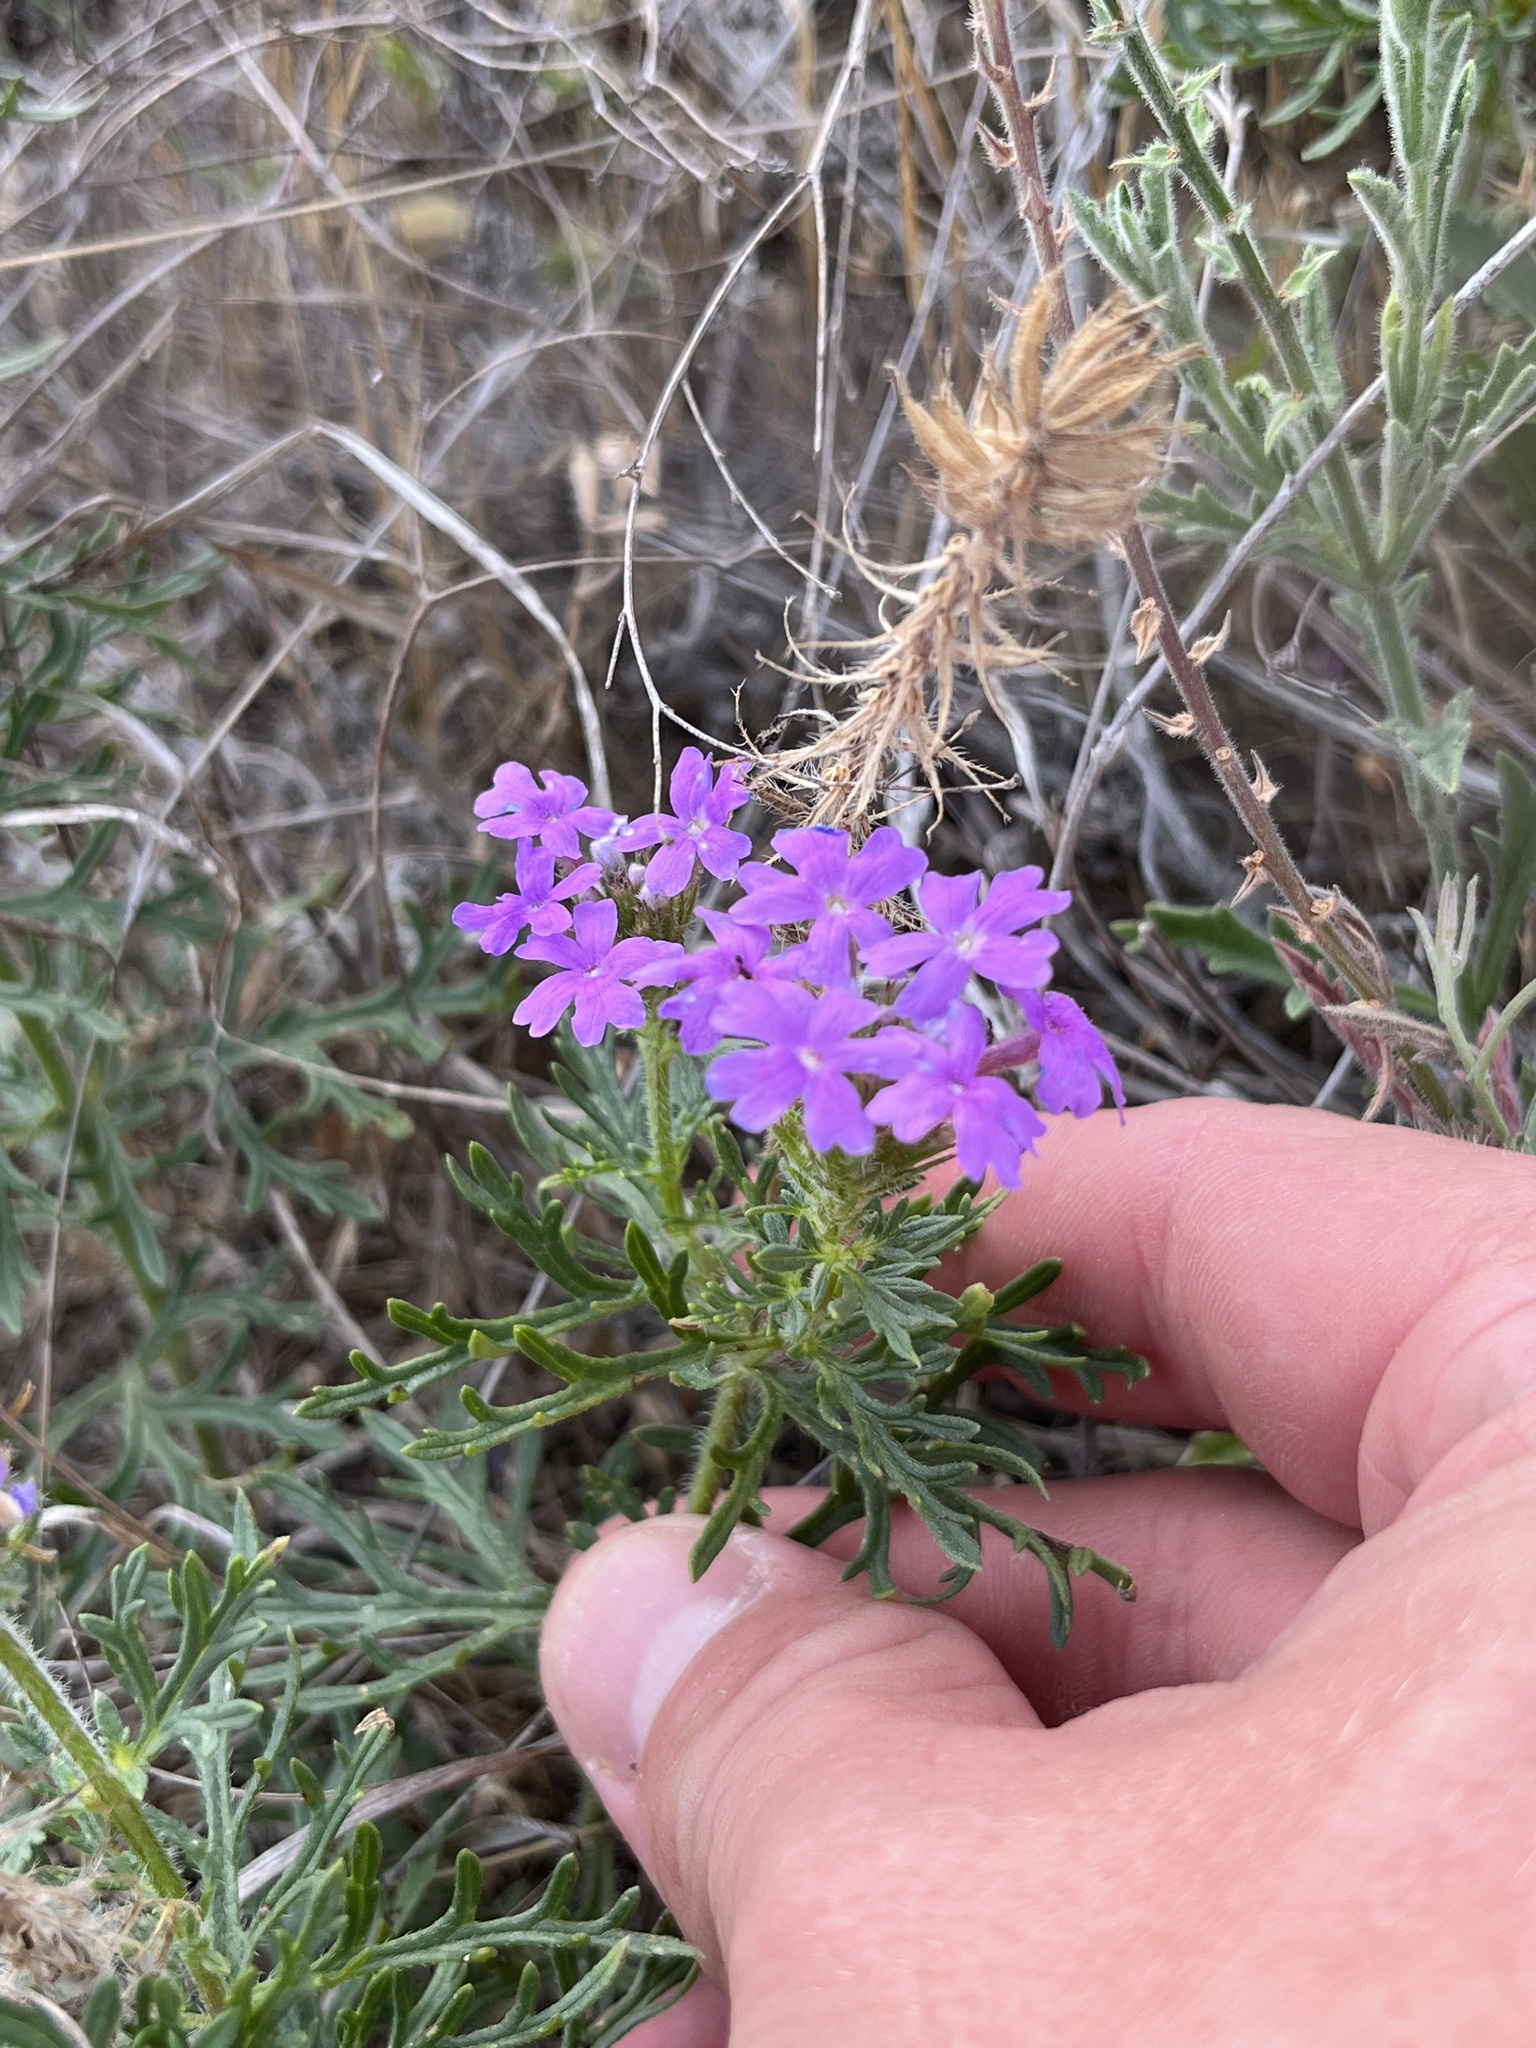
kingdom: Plantae
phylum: Tracheophyta
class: Magnoliopsida
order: Lamiales
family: Verbenaceae
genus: Verbena
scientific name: Verbena bipinnatifida
